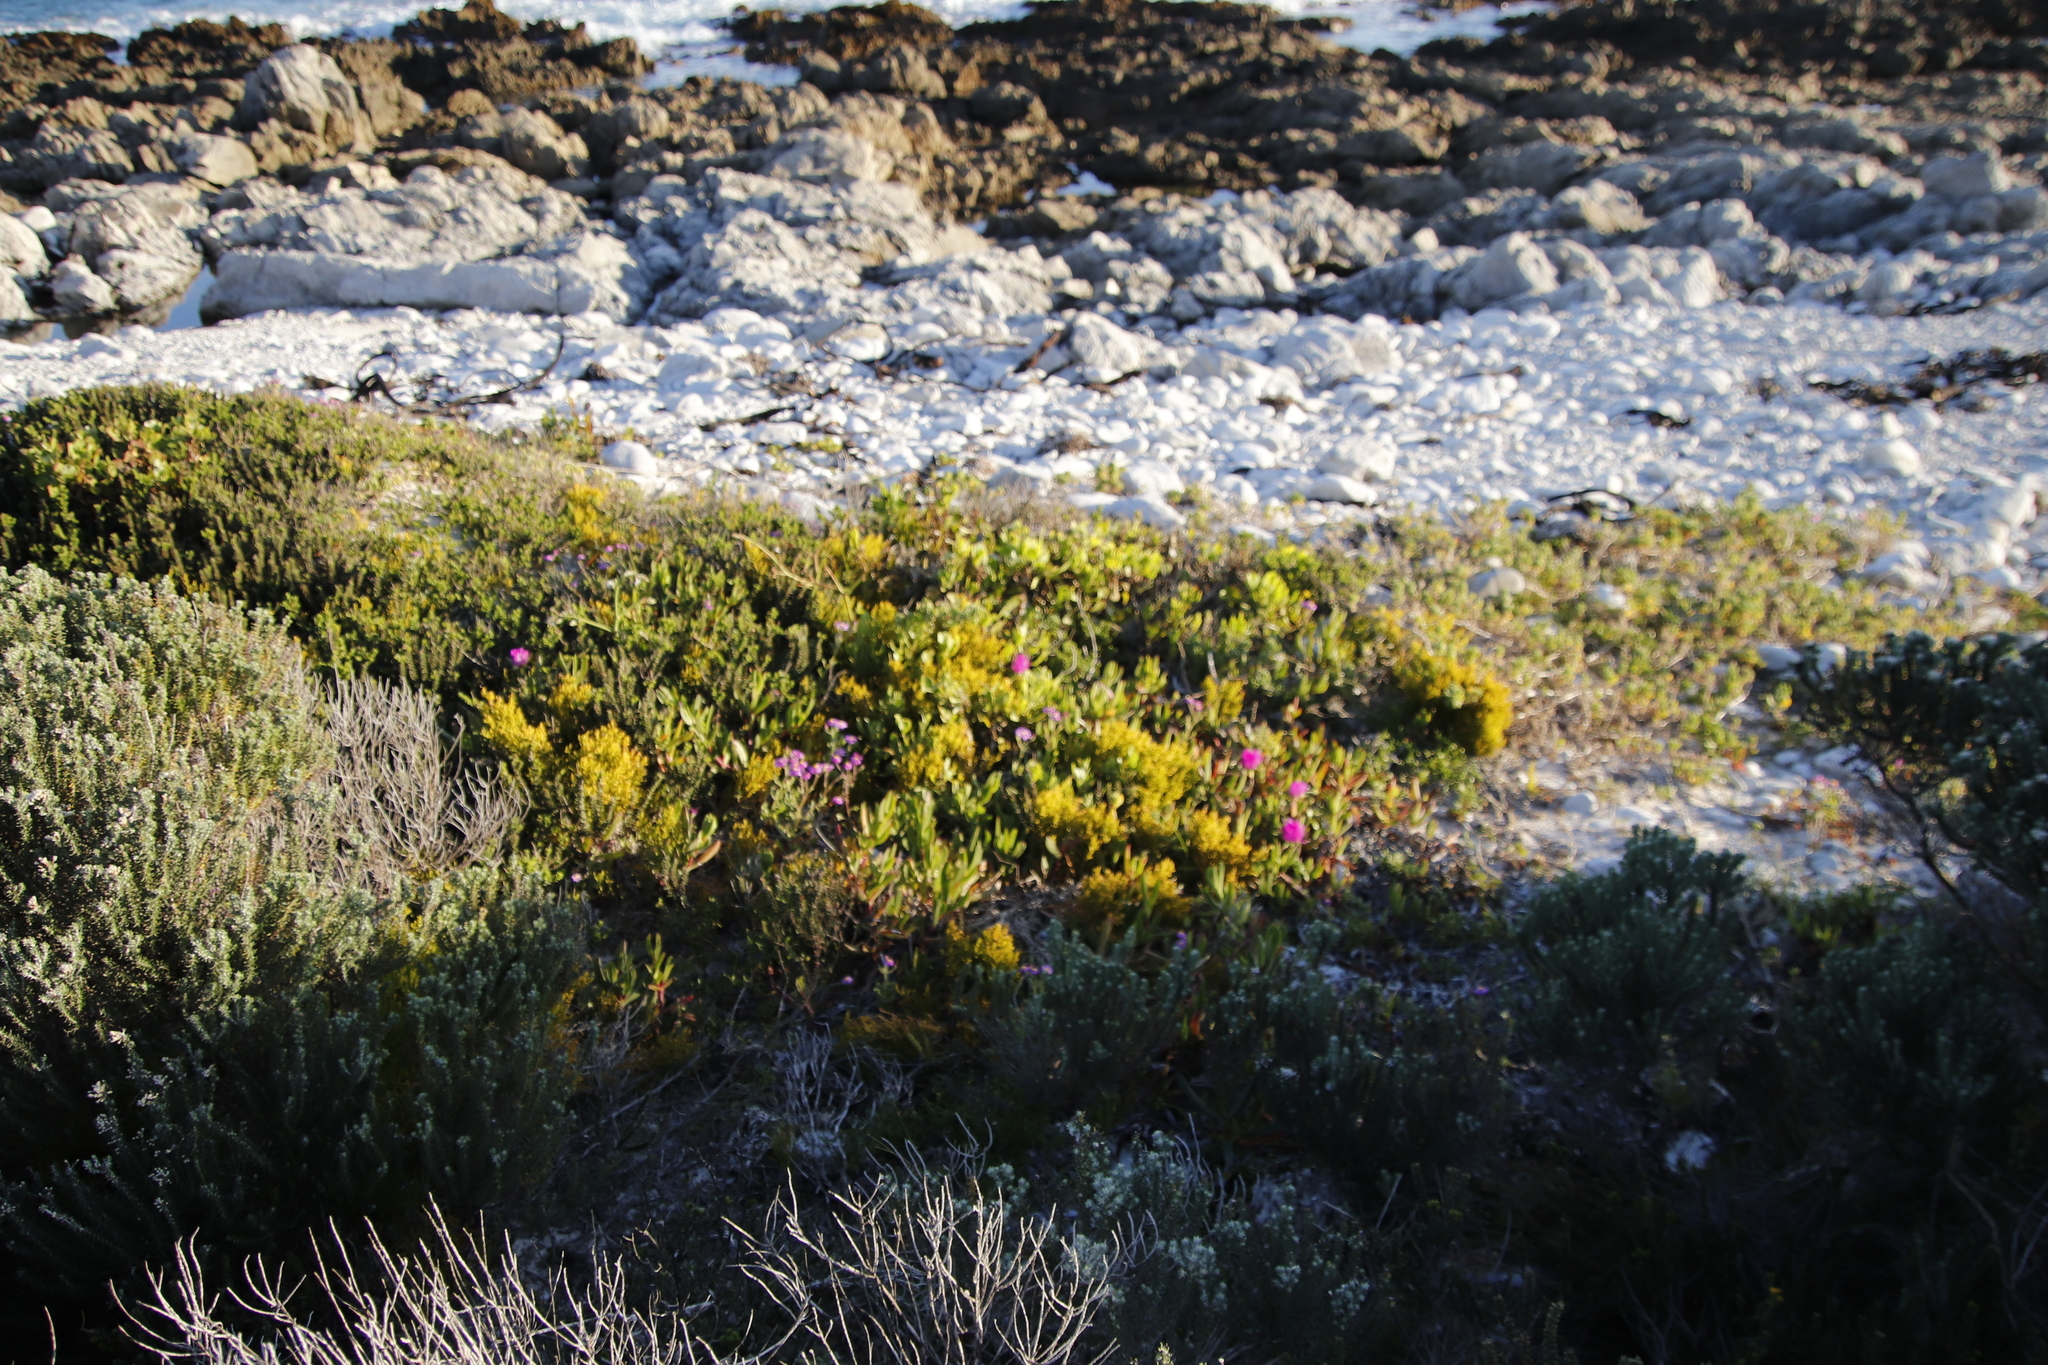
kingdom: Plantae
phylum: Tracheophyta
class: Magnoliopsida
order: Caryophyllales
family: Aizoaceae
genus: Carpobrotus
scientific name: Carpobrotus acinaciformis
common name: Sally-my-handsome
